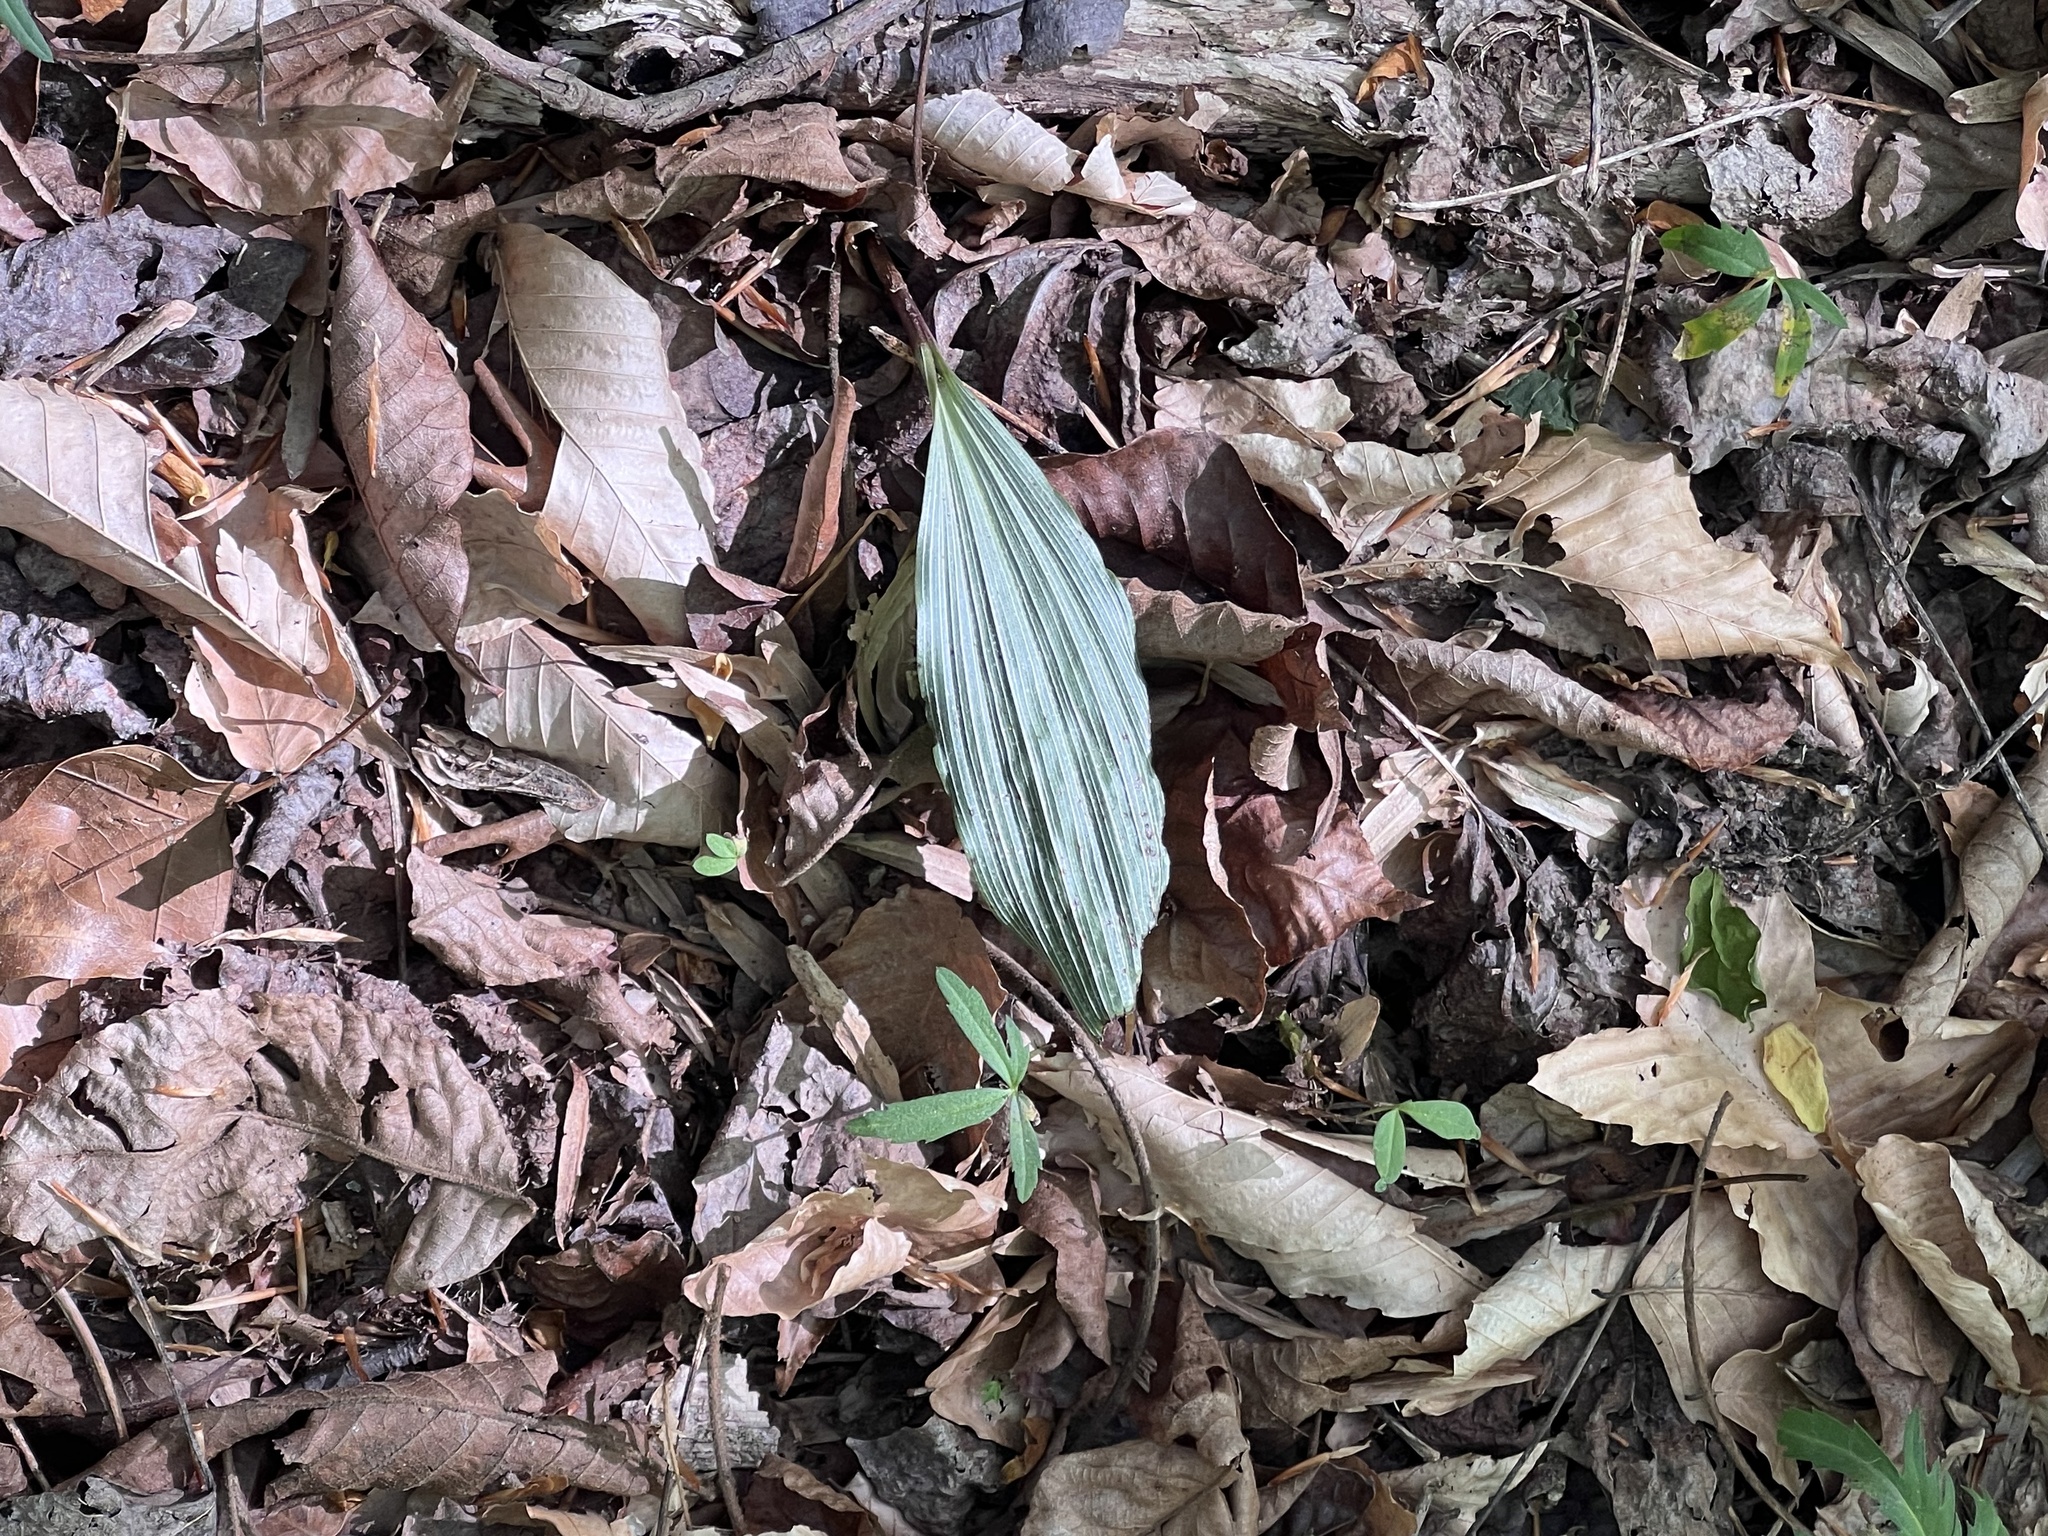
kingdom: Plantae
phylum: Tracheophyta
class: Liliopsida
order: Asparagales
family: Orchidaceae
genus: Aplectrum
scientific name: Aplectrum hyemale
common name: Adam-and-eve
